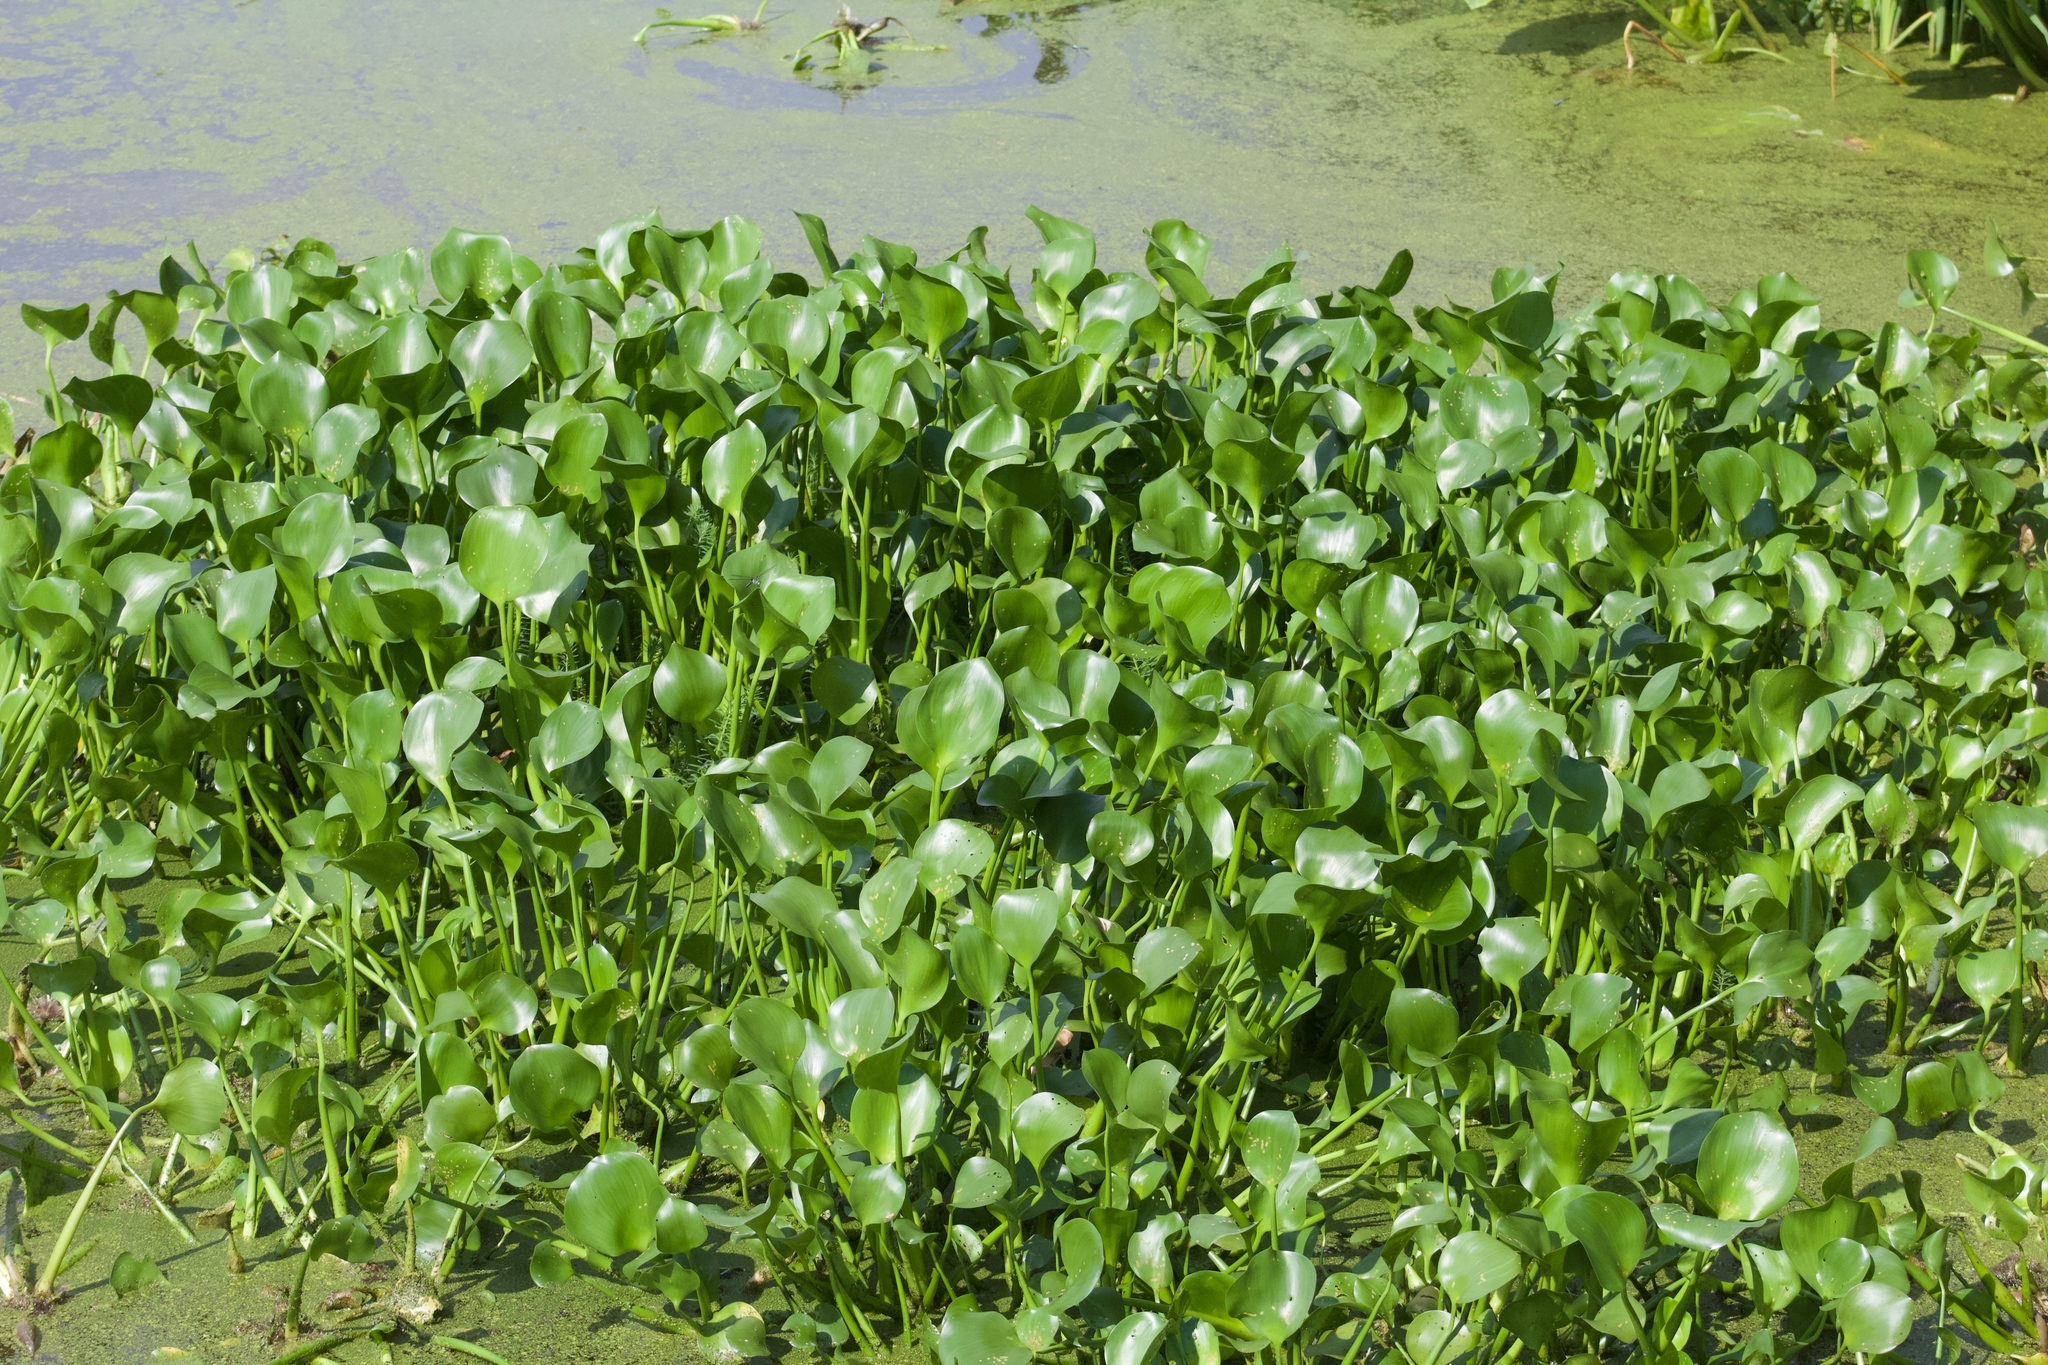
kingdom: Plantae
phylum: Tracheophyta
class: Liliopsida
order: Commelinales
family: Pontederiaceae
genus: Pontederia
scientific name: Pontederia crassipes
